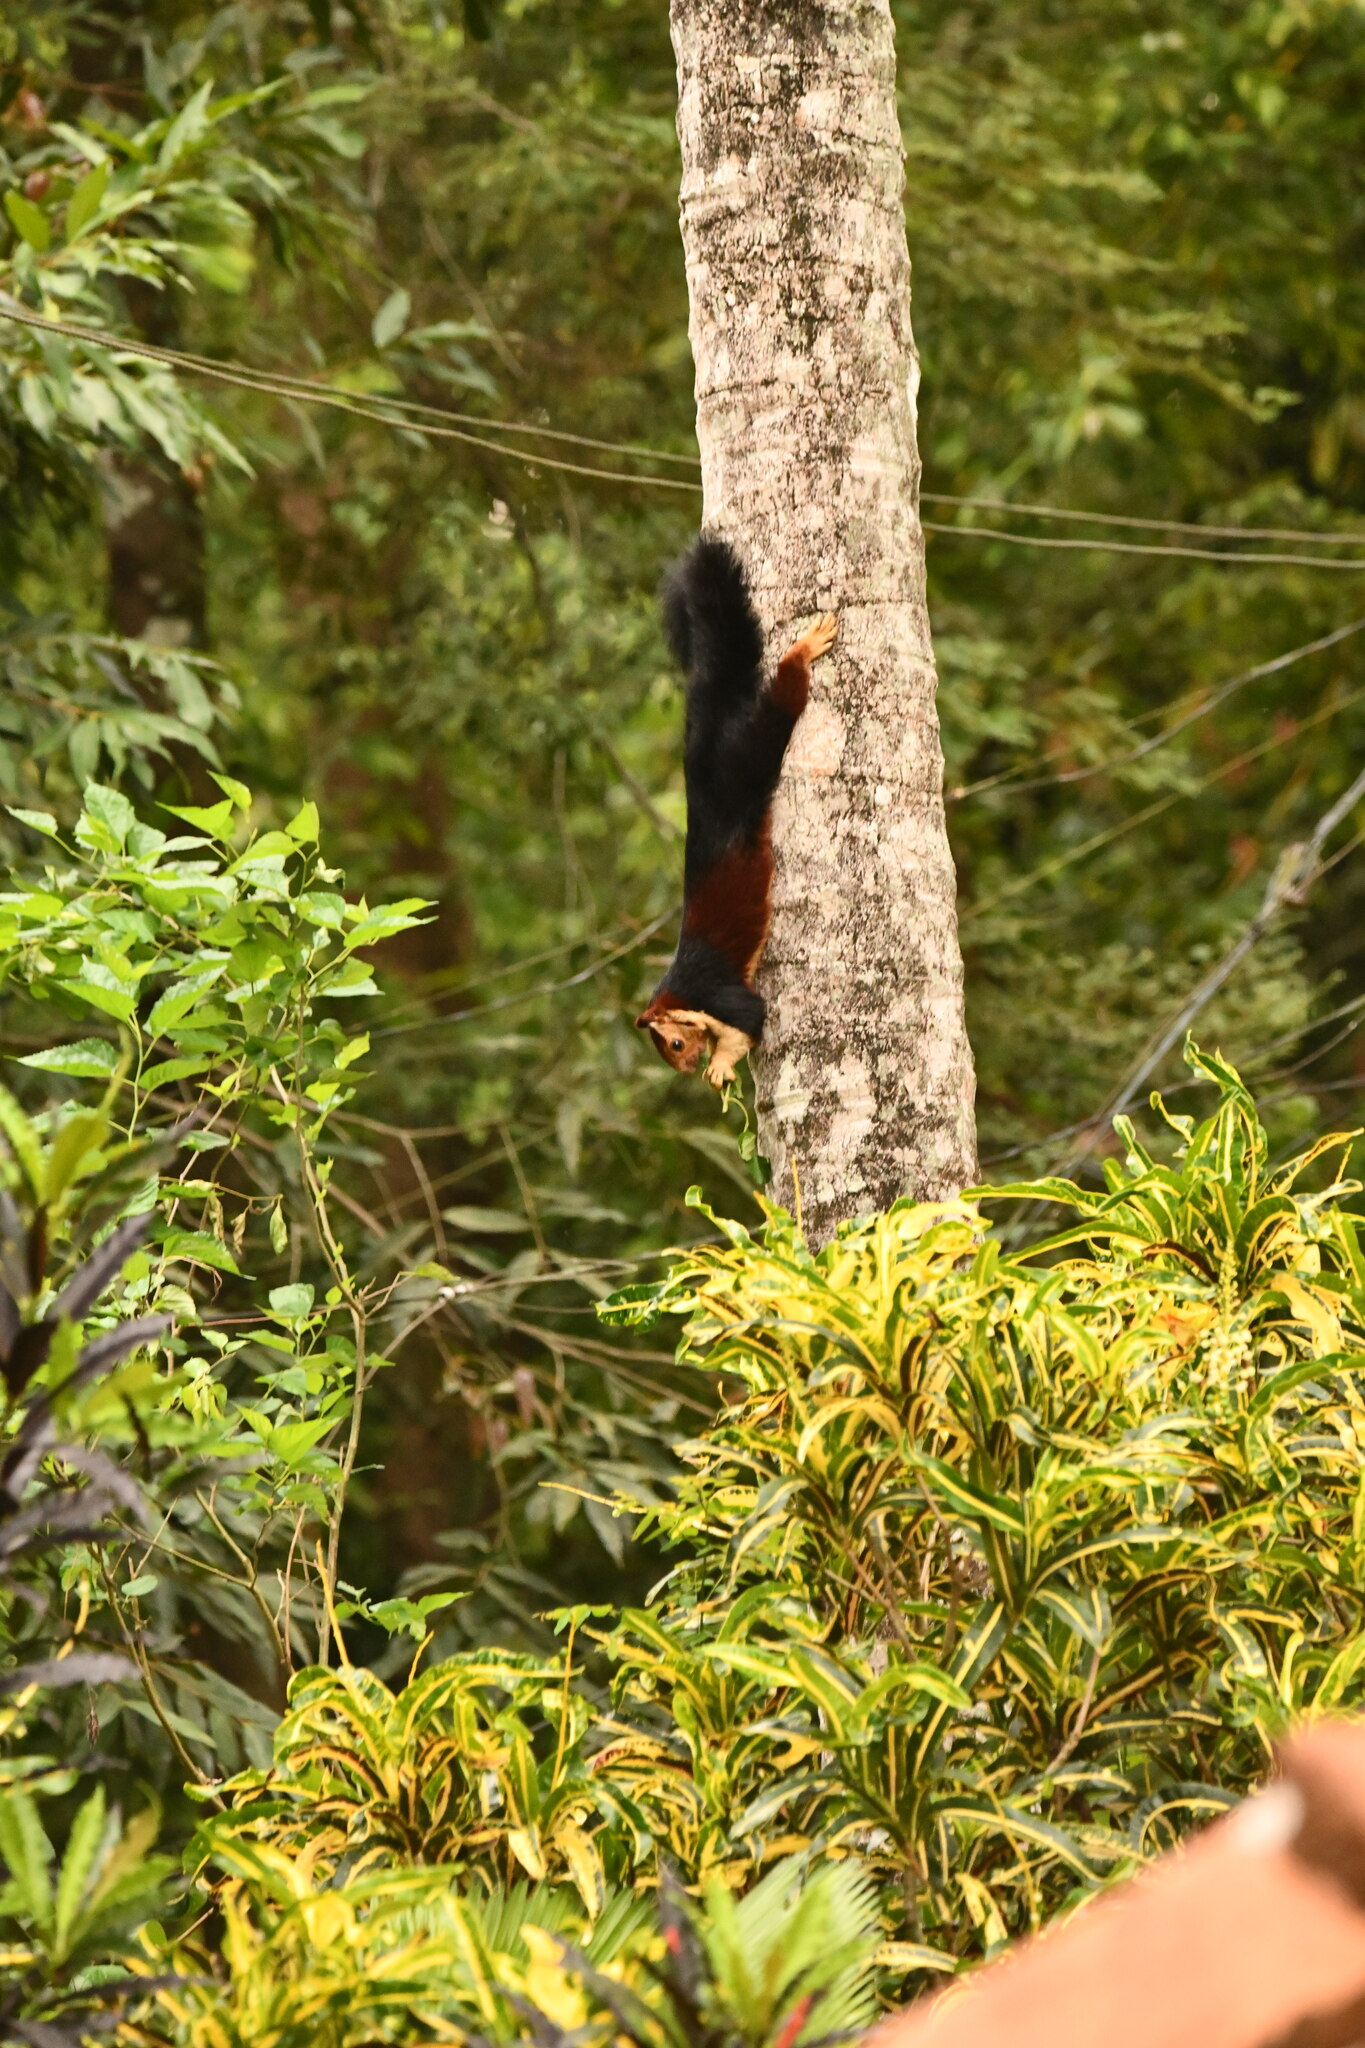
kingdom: Animalia
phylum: Chordata
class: Mammalia
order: Rodentia
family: Sciuridae
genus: Ratufa
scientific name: Ratufa indica
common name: Indian giant squirrel
